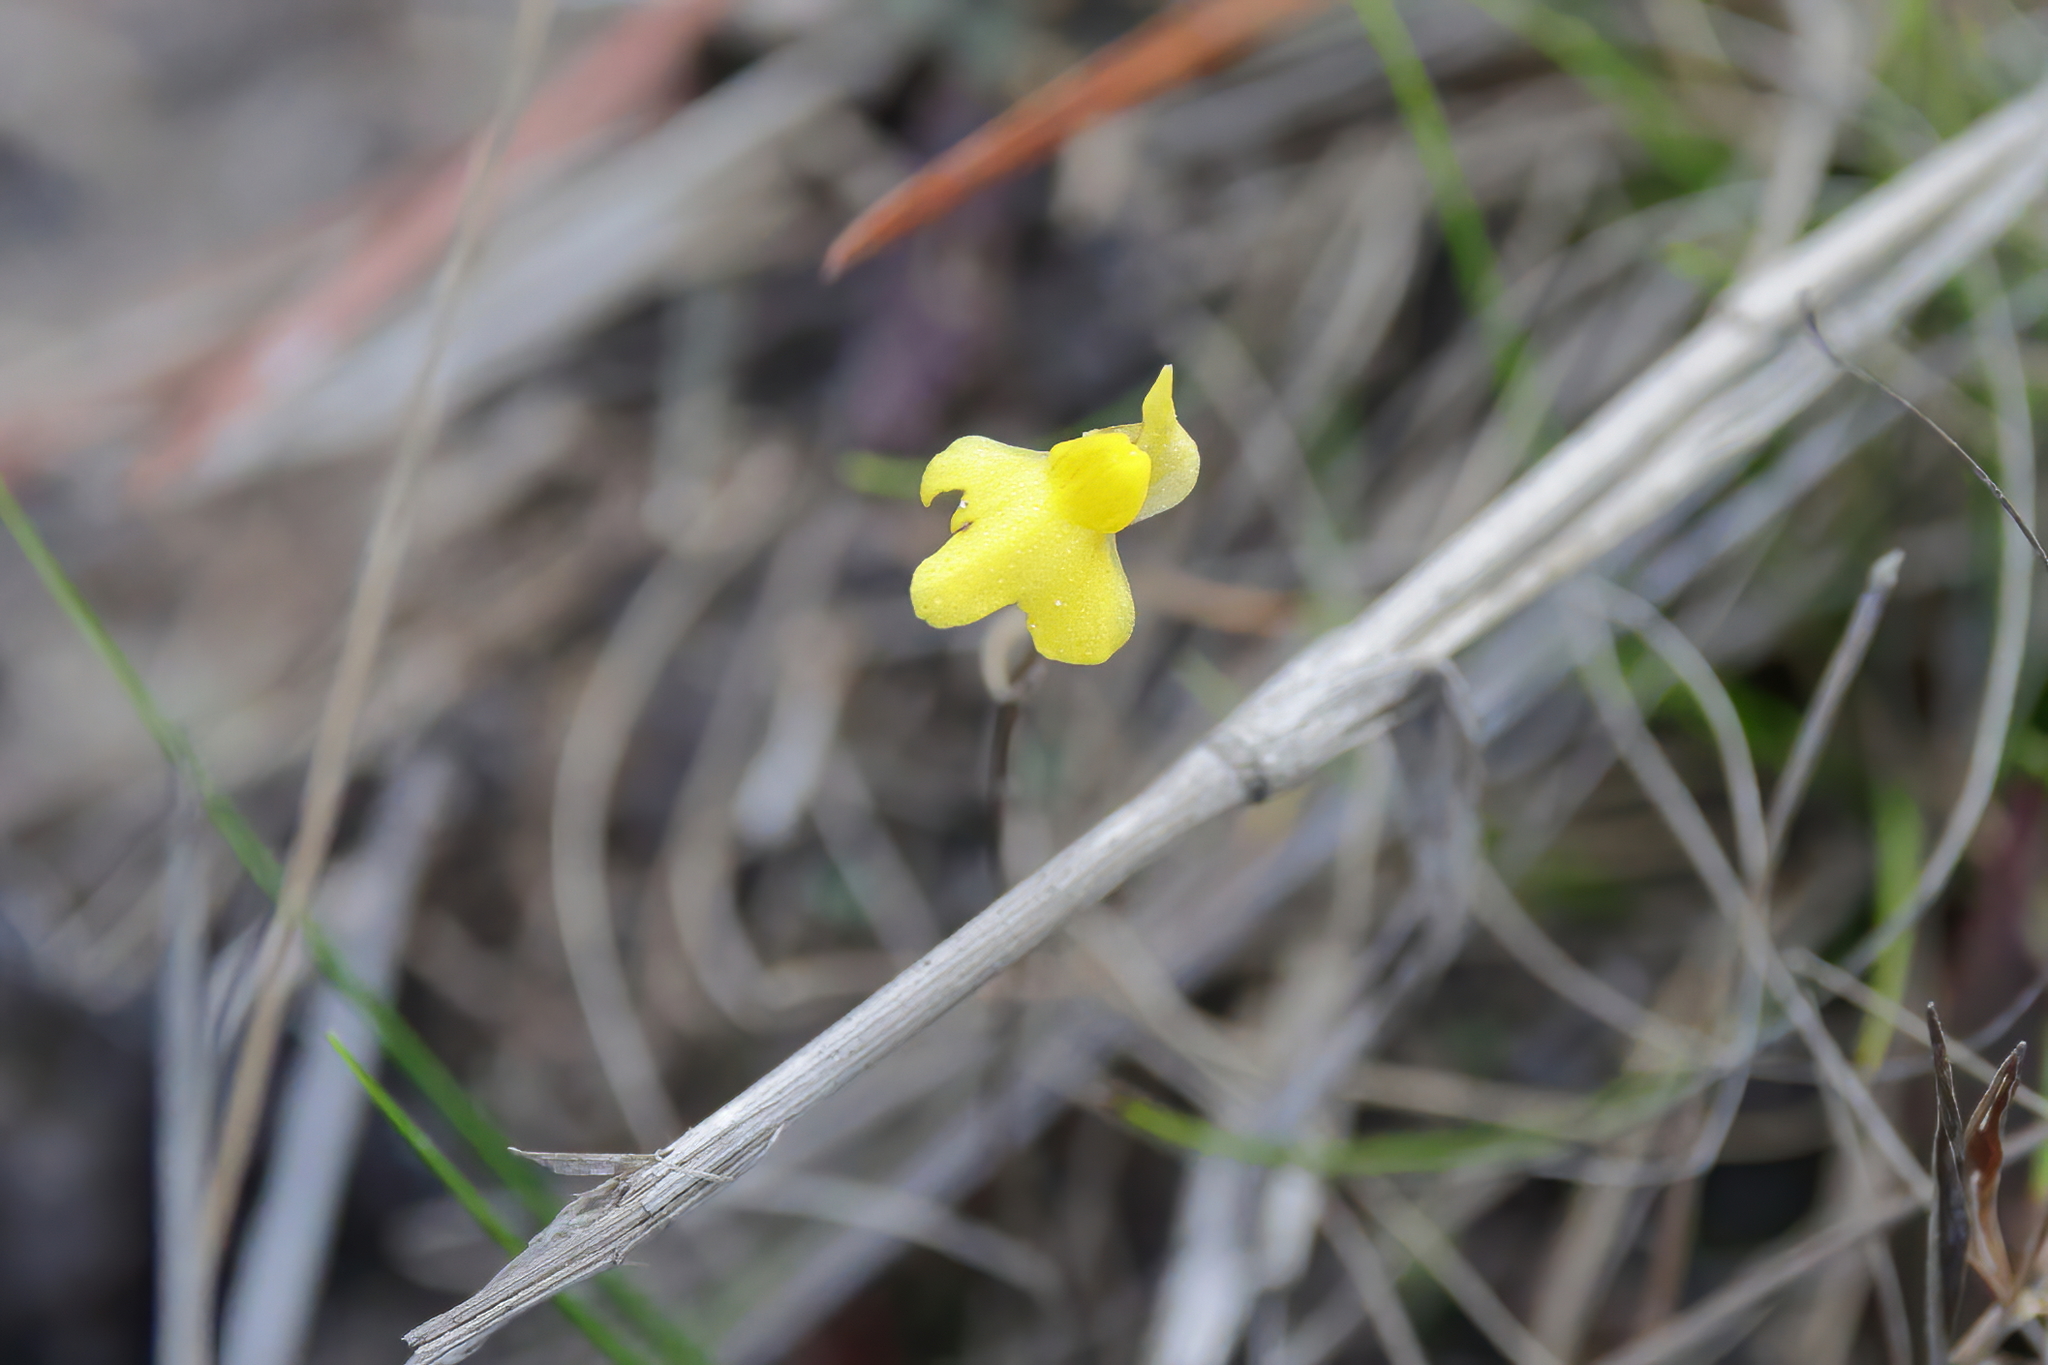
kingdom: Plantae
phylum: Tracheophyta
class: Magnoliopsida
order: Lamiales
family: Lentibulariaceae
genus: Utricularia
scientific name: Utricularia subulata
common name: Tiny bladderwort
